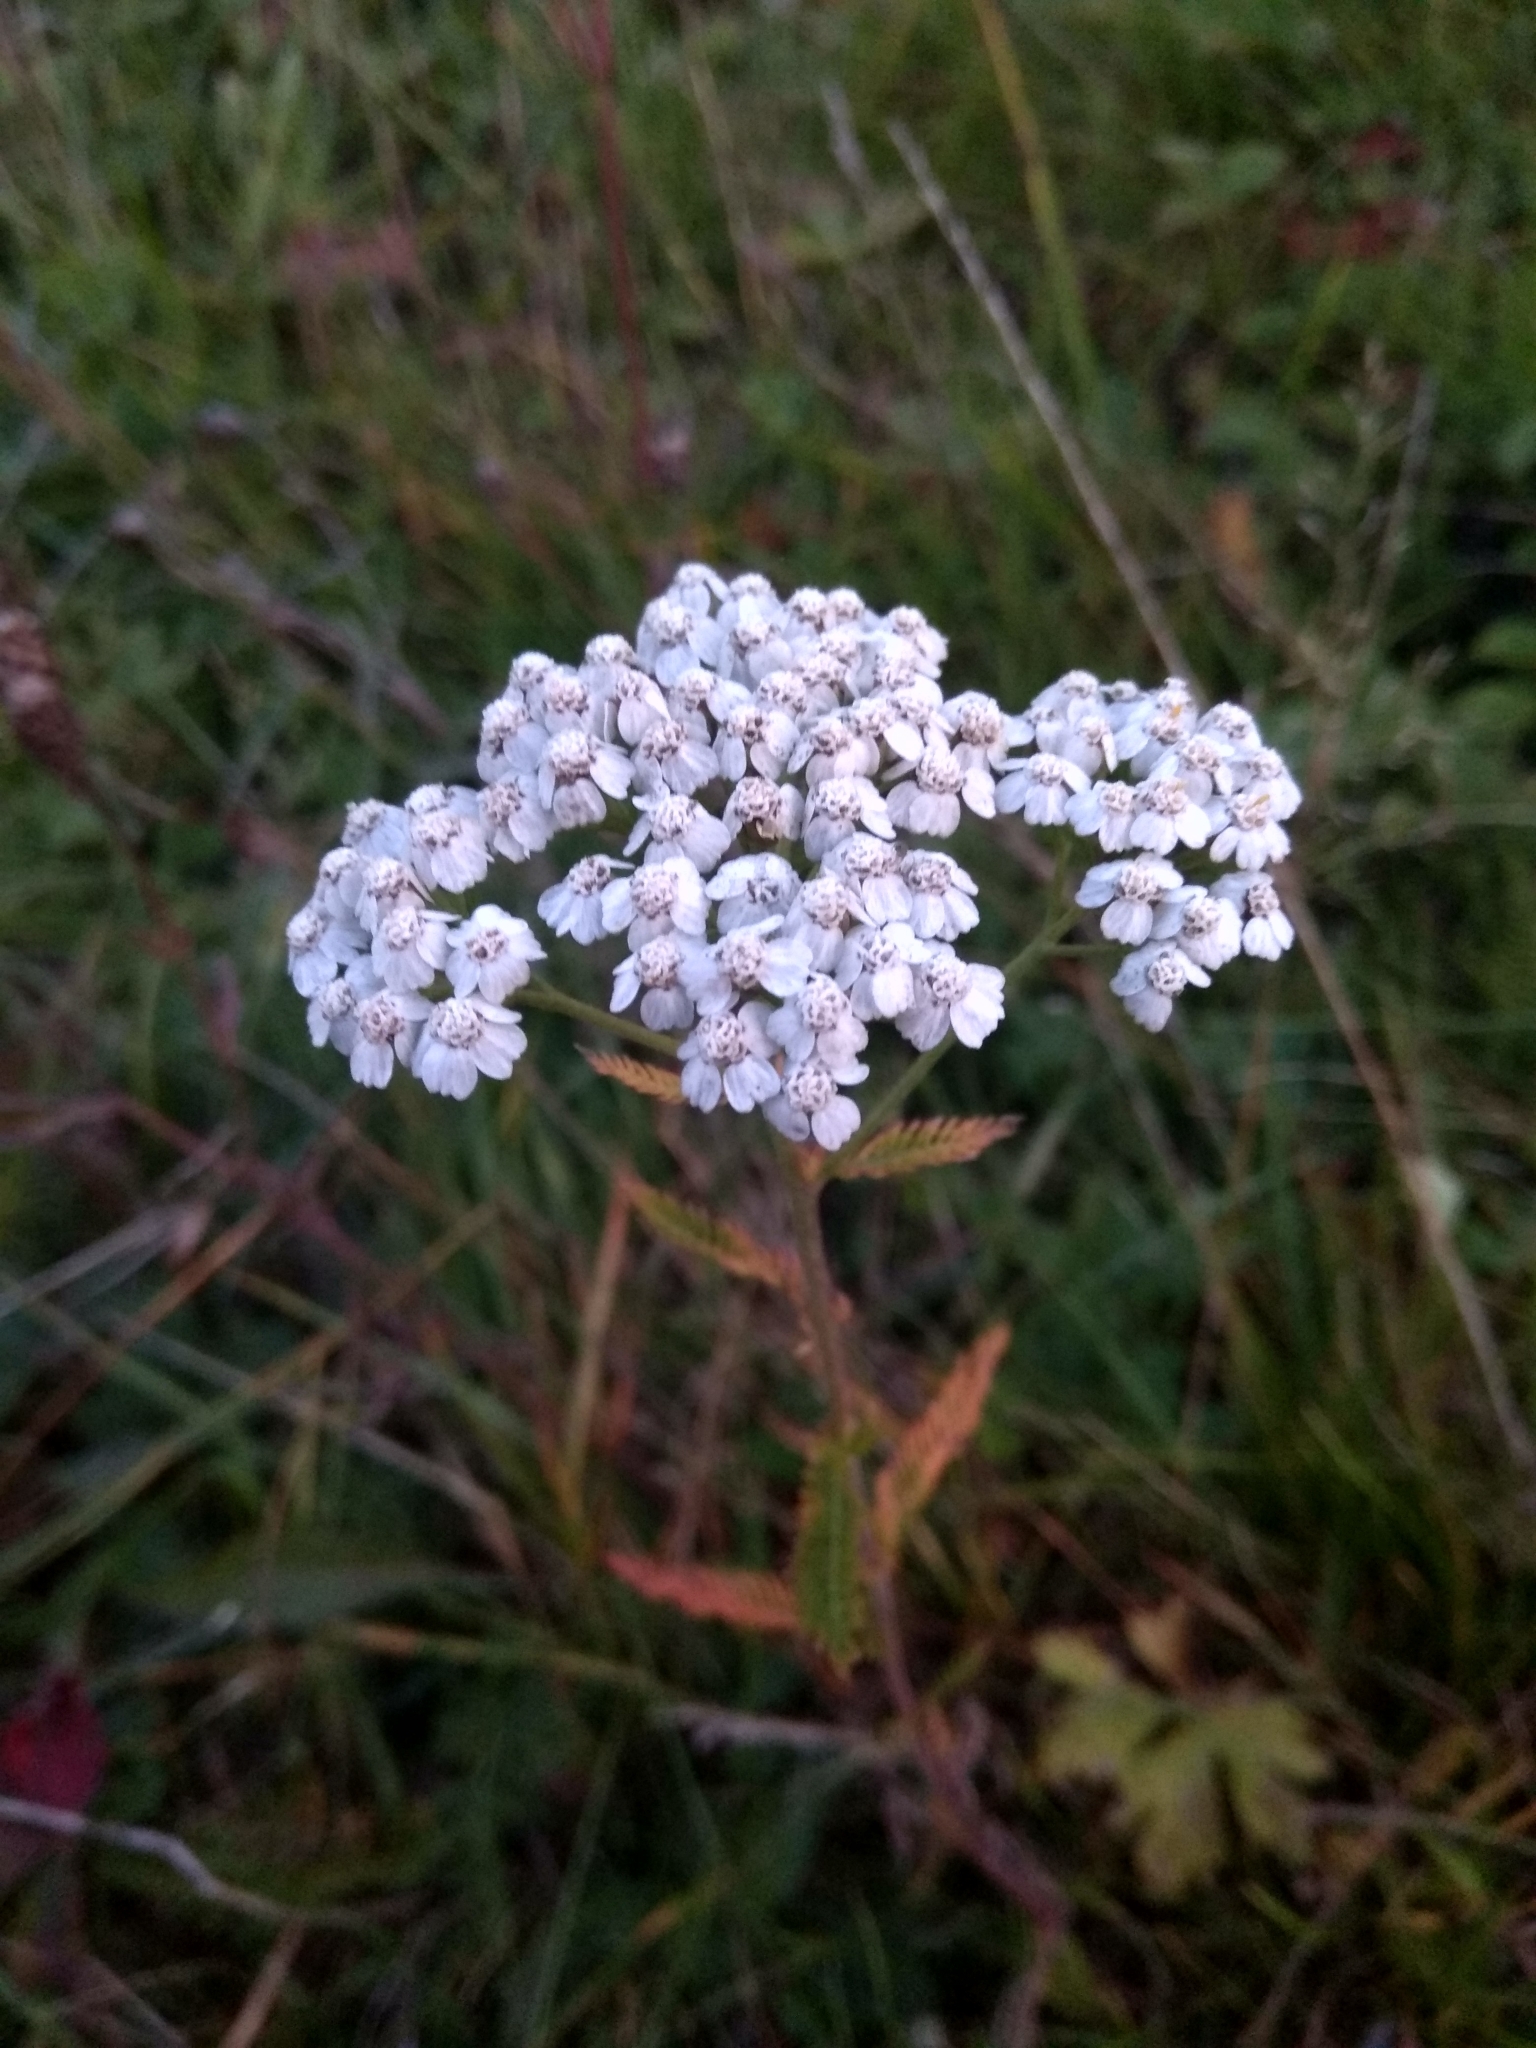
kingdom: Plantae
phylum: Tracheophyta
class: Magnoliopsida
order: Asterales
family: Asteraceae
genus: Achillea
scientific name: Achillea millefolium
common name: Yarrow
